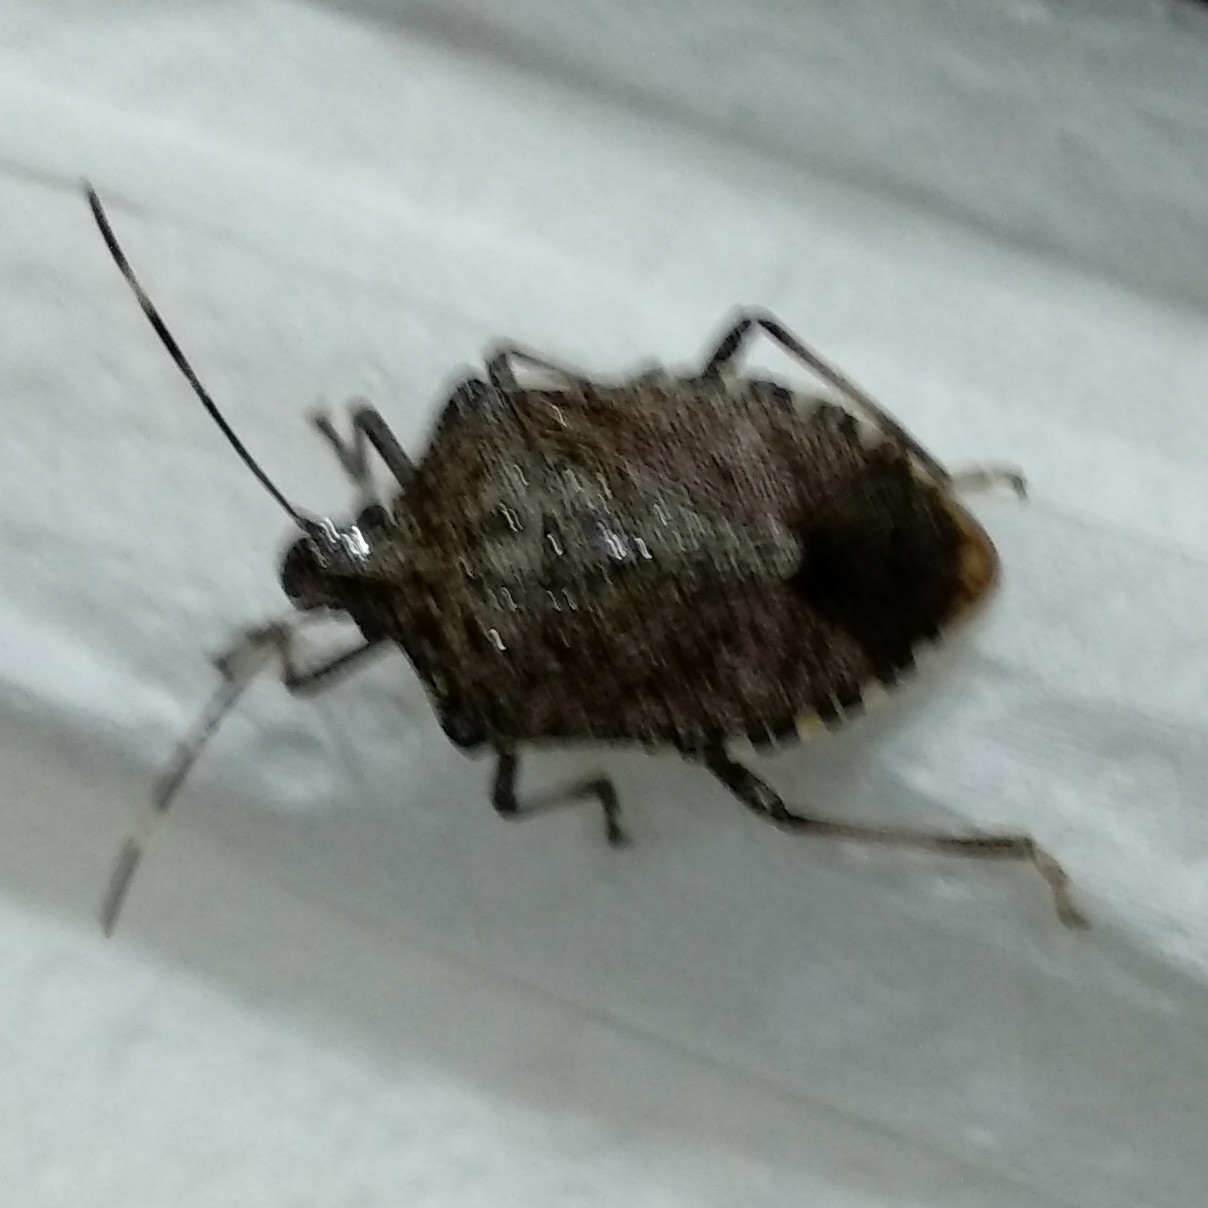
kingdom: Animalia
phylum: Arthropoda
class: Insecta
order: Hemiptera
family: Pentatomidae
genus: Halyomorpha
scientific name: Halyomorpha halys
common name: Brown marmorated stink bug
